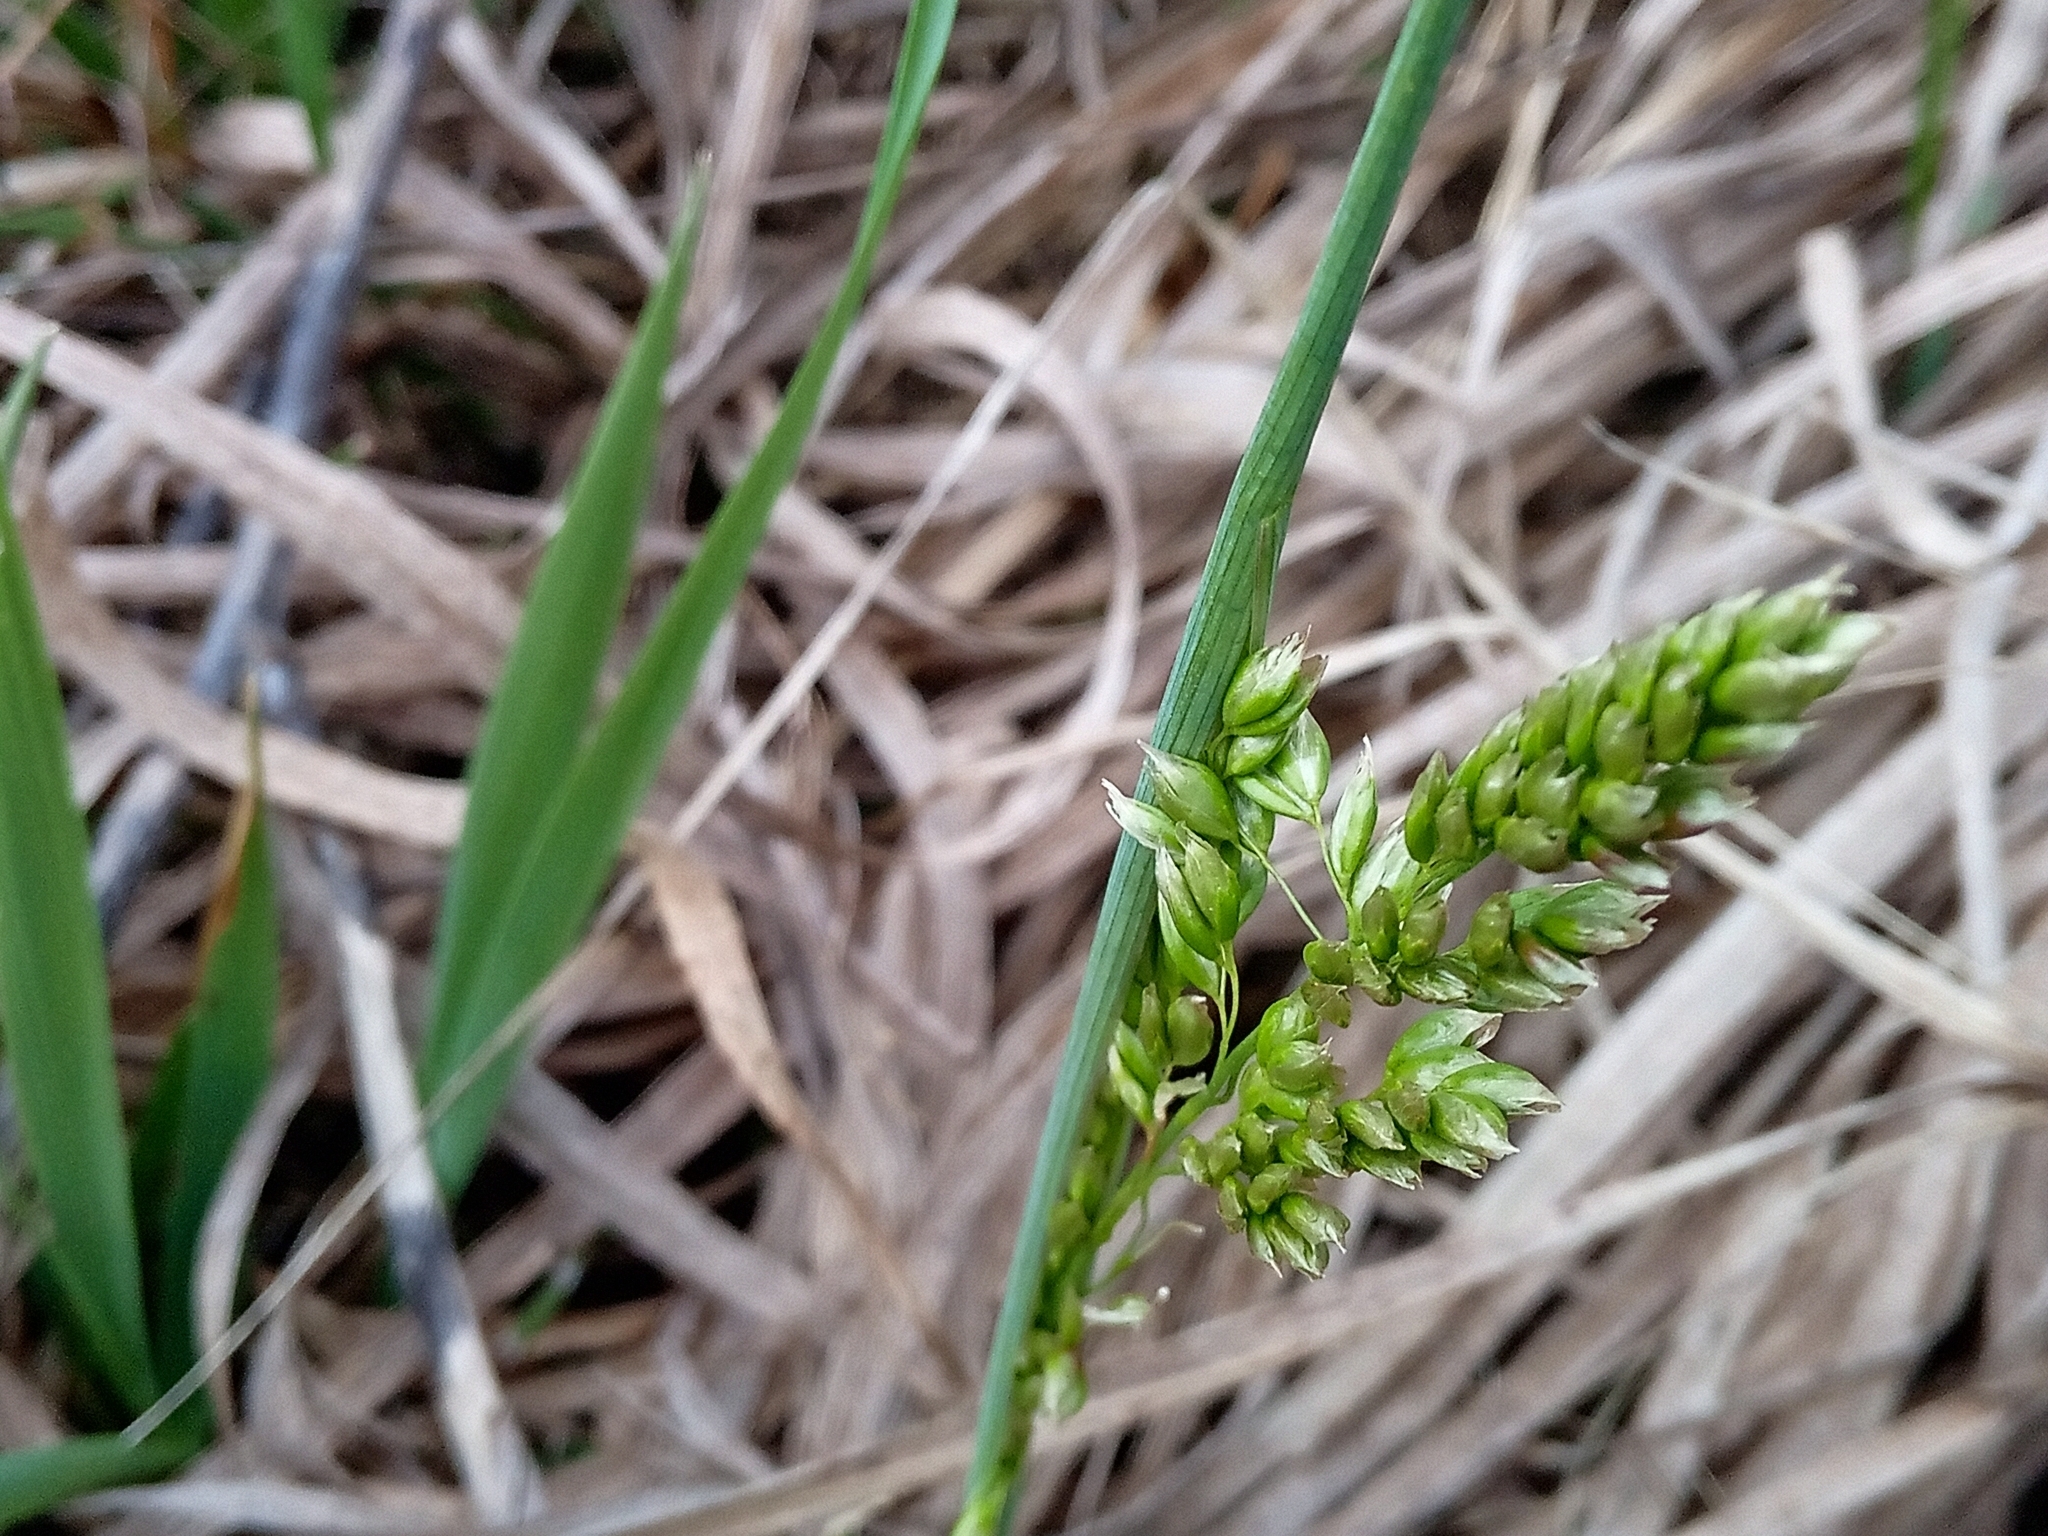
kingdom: Plantae
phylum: Tracheophyta
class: Liliopsida
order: Poales
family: Poaceae
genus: Anthoxanthum
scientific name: Anthoxanthum repens
